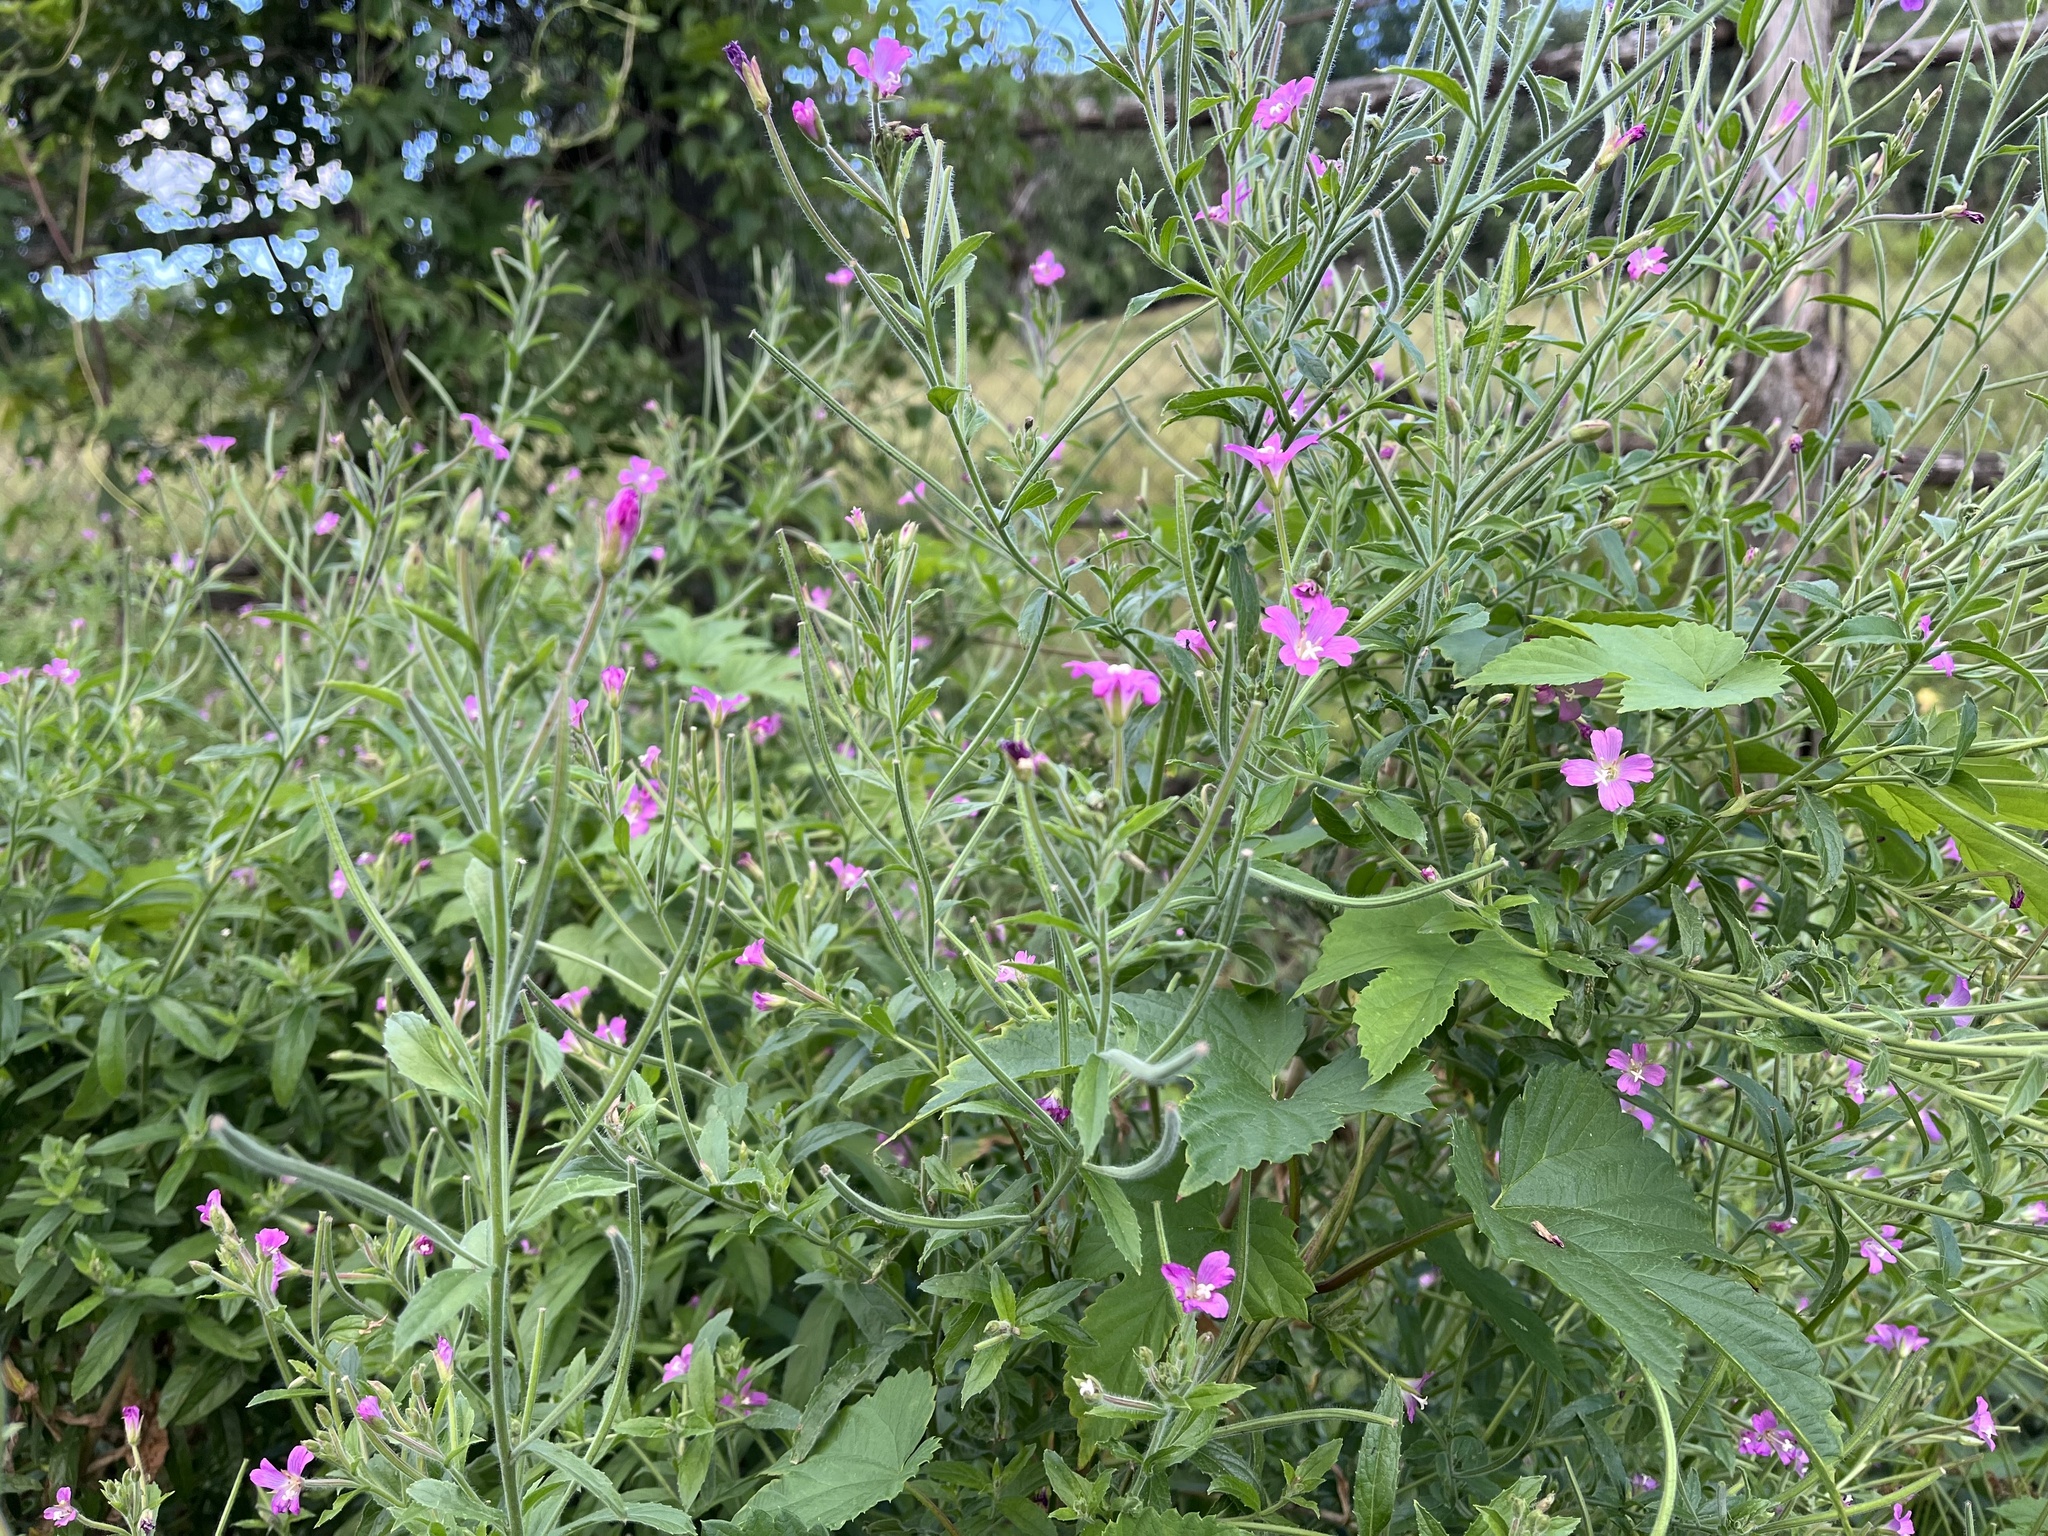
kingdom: Plantae
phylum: Tracheophyta
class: Magnoliopsida
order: Myrtales
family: Onagraceae
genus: Epilobium
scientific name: Epilobium hirsutum
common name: Great willowherb
